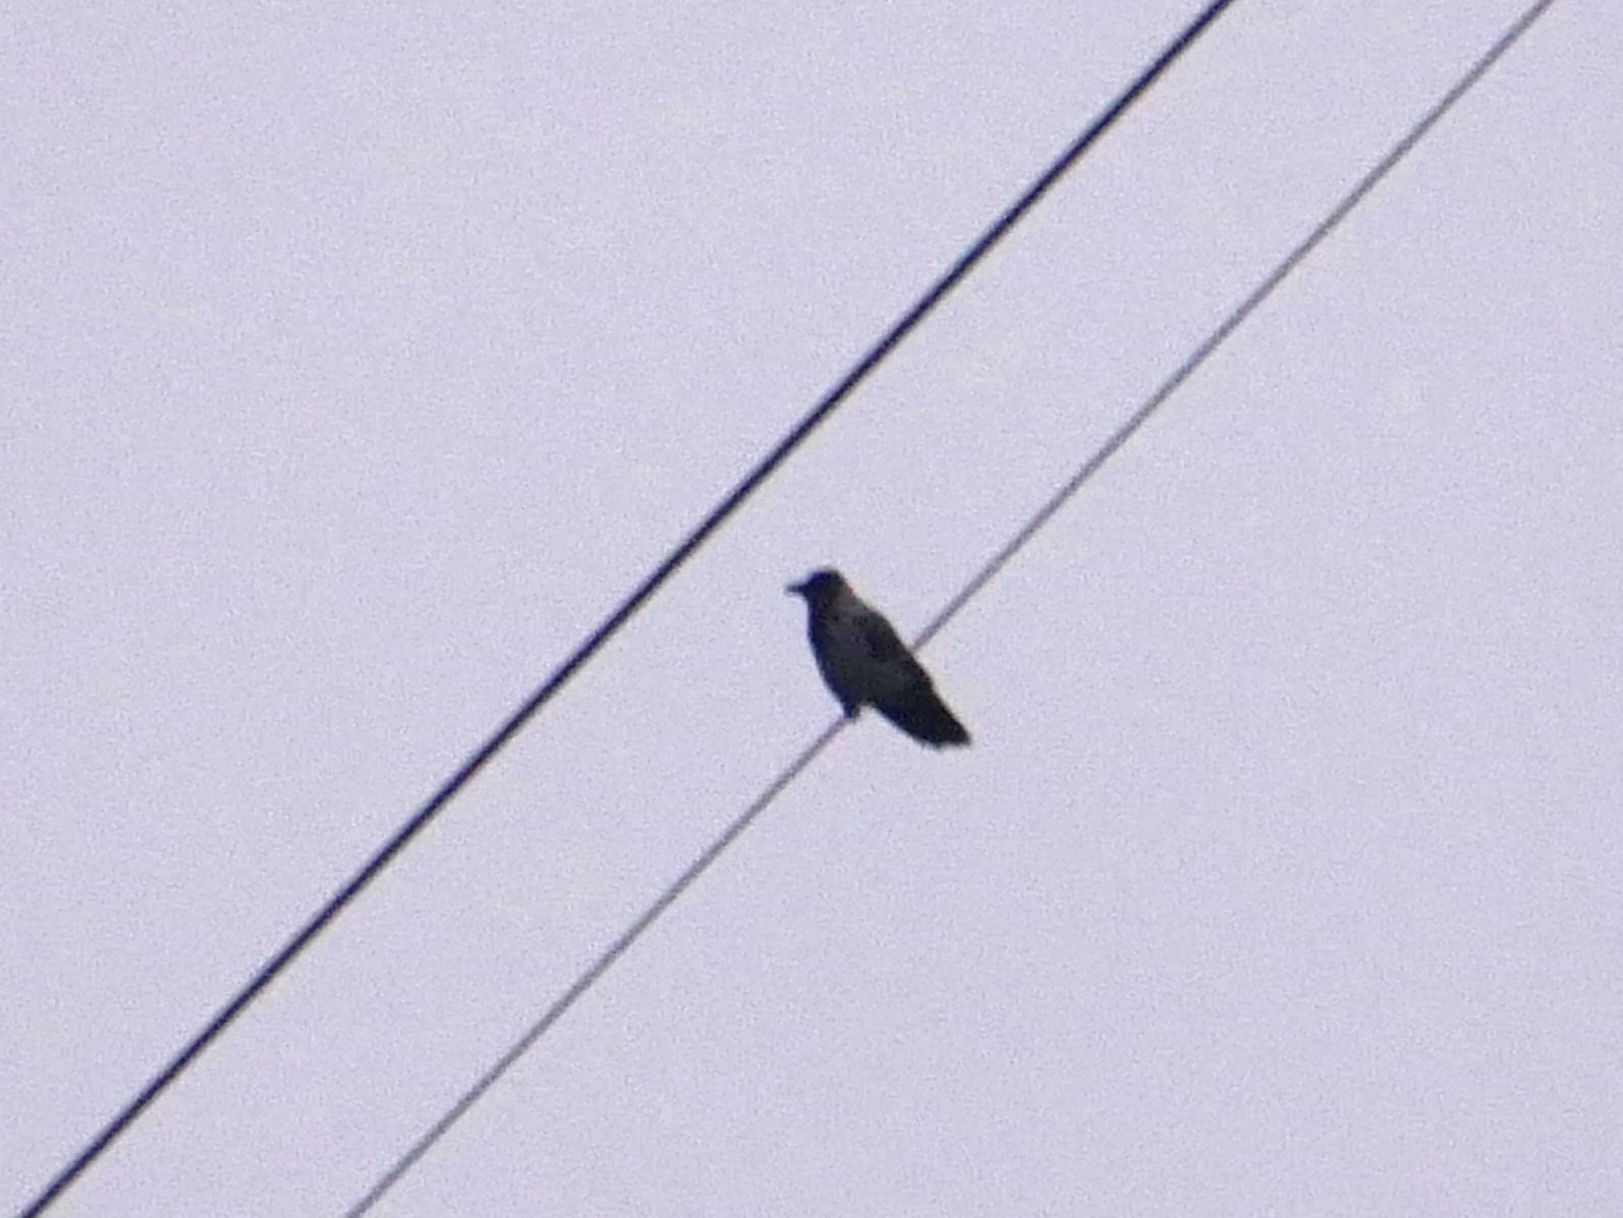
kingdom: Animalia
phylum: Chordata
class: Aves
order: Passeriformes
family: Corvidae
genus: Corvus
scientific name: Corvus cornix
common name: Hooded crow
